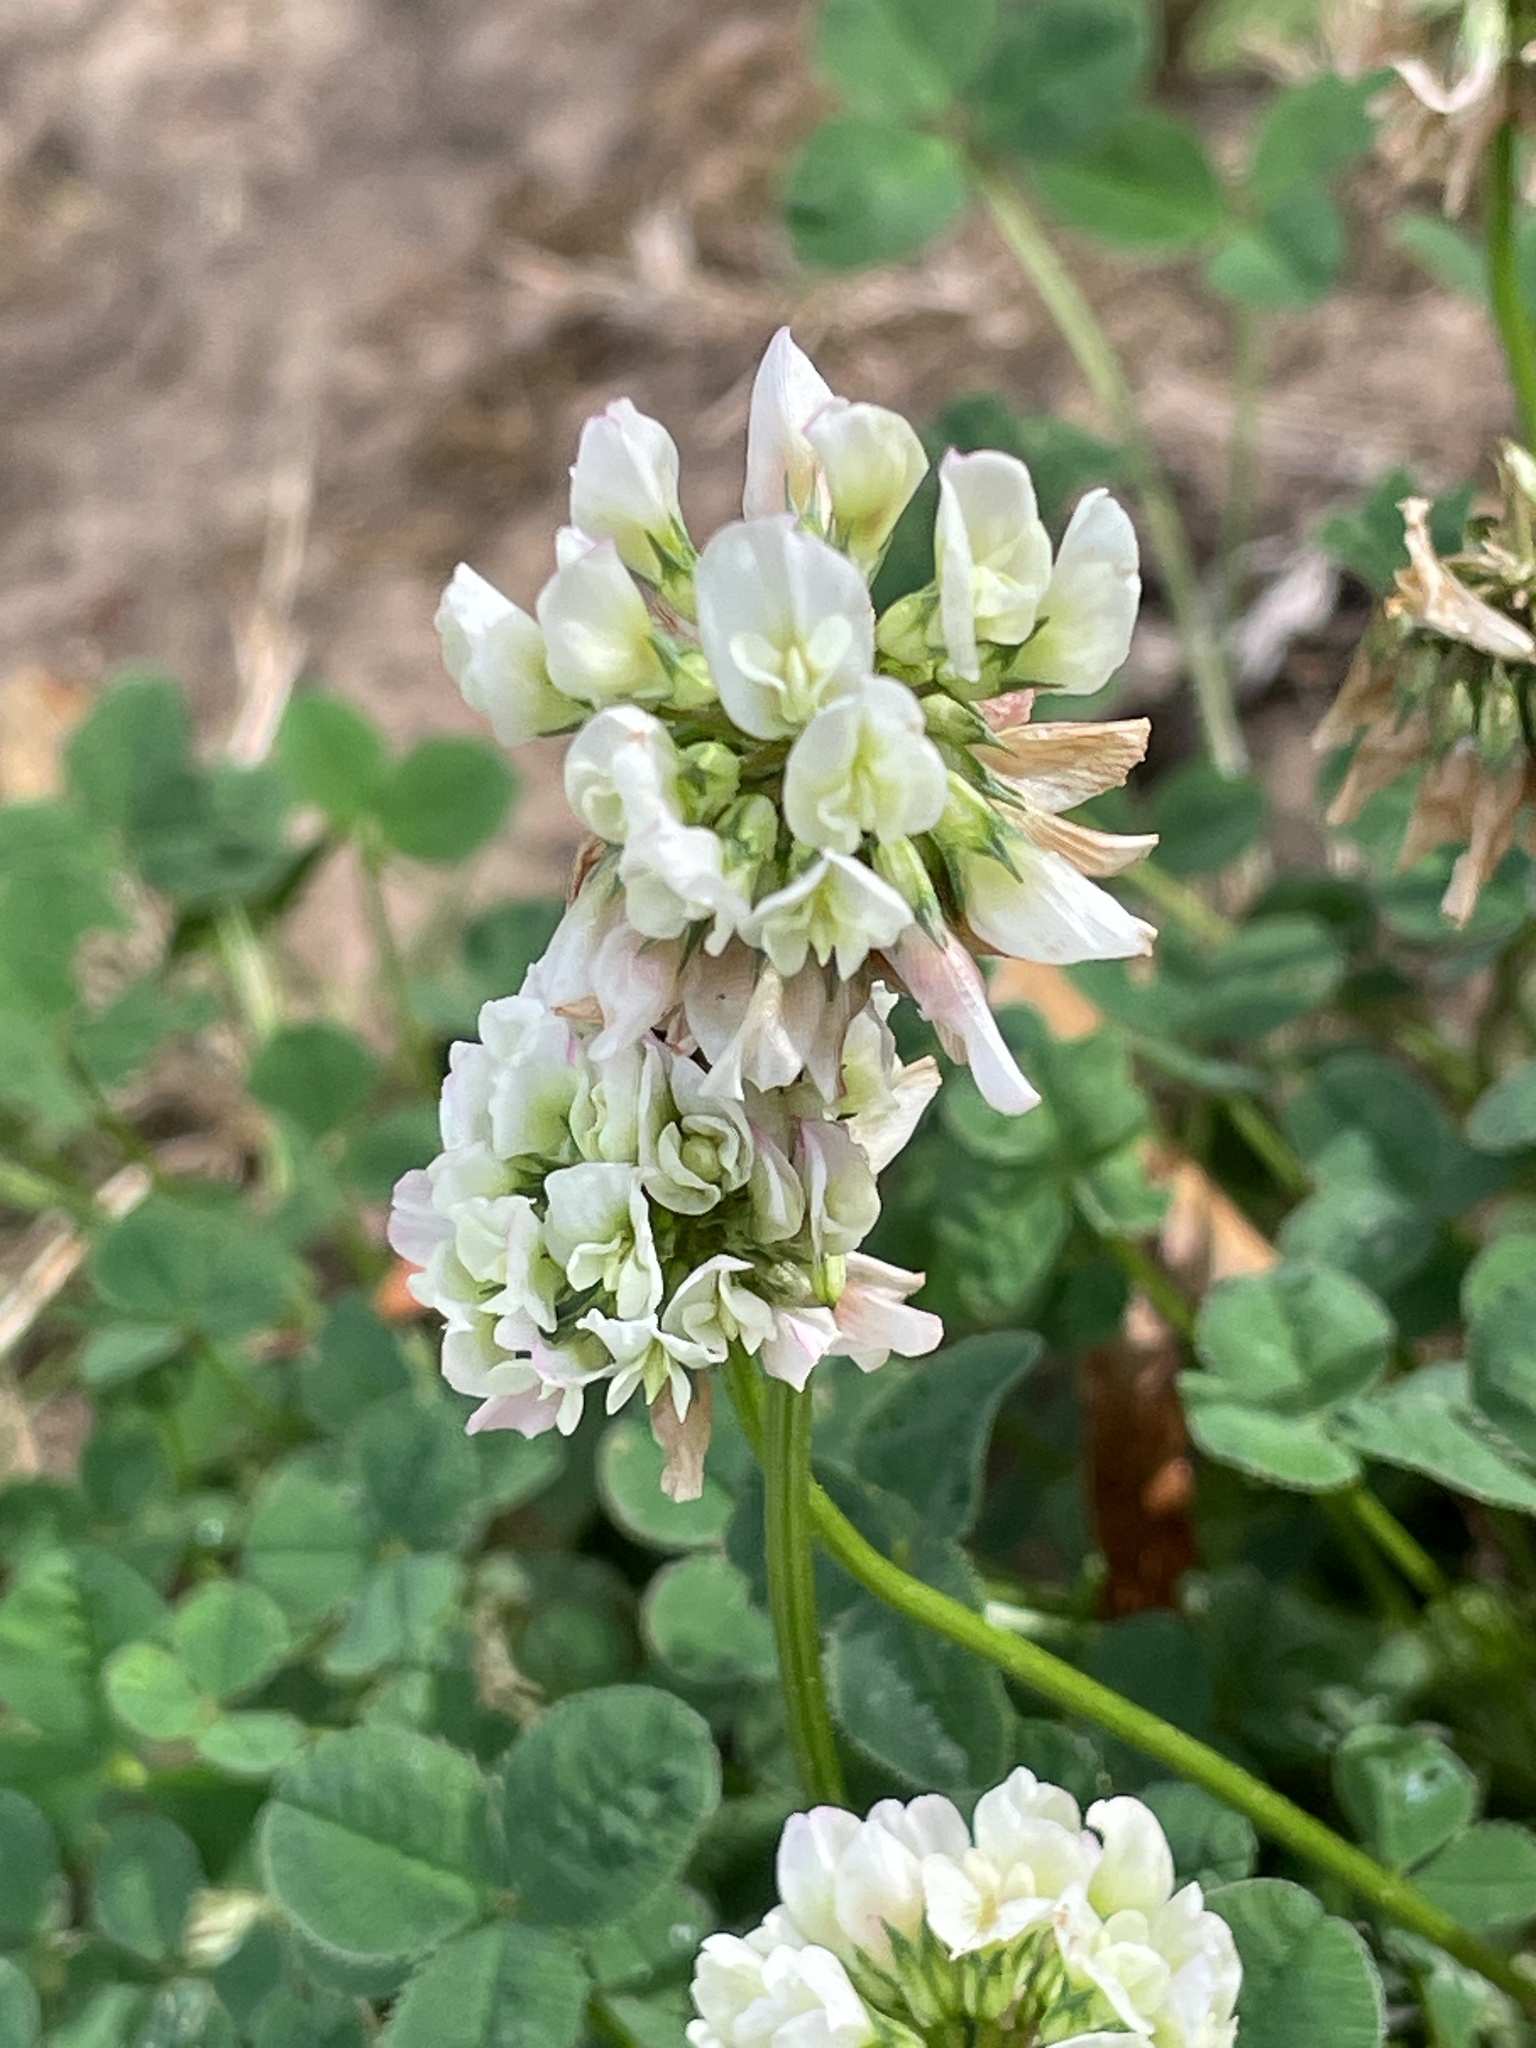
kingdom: Plantae
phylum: Tracheophyta
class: Magnoliopsida
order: Fabales
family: Fabaceae
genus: Trifolium
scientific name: Trifolium repens
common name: White clover
